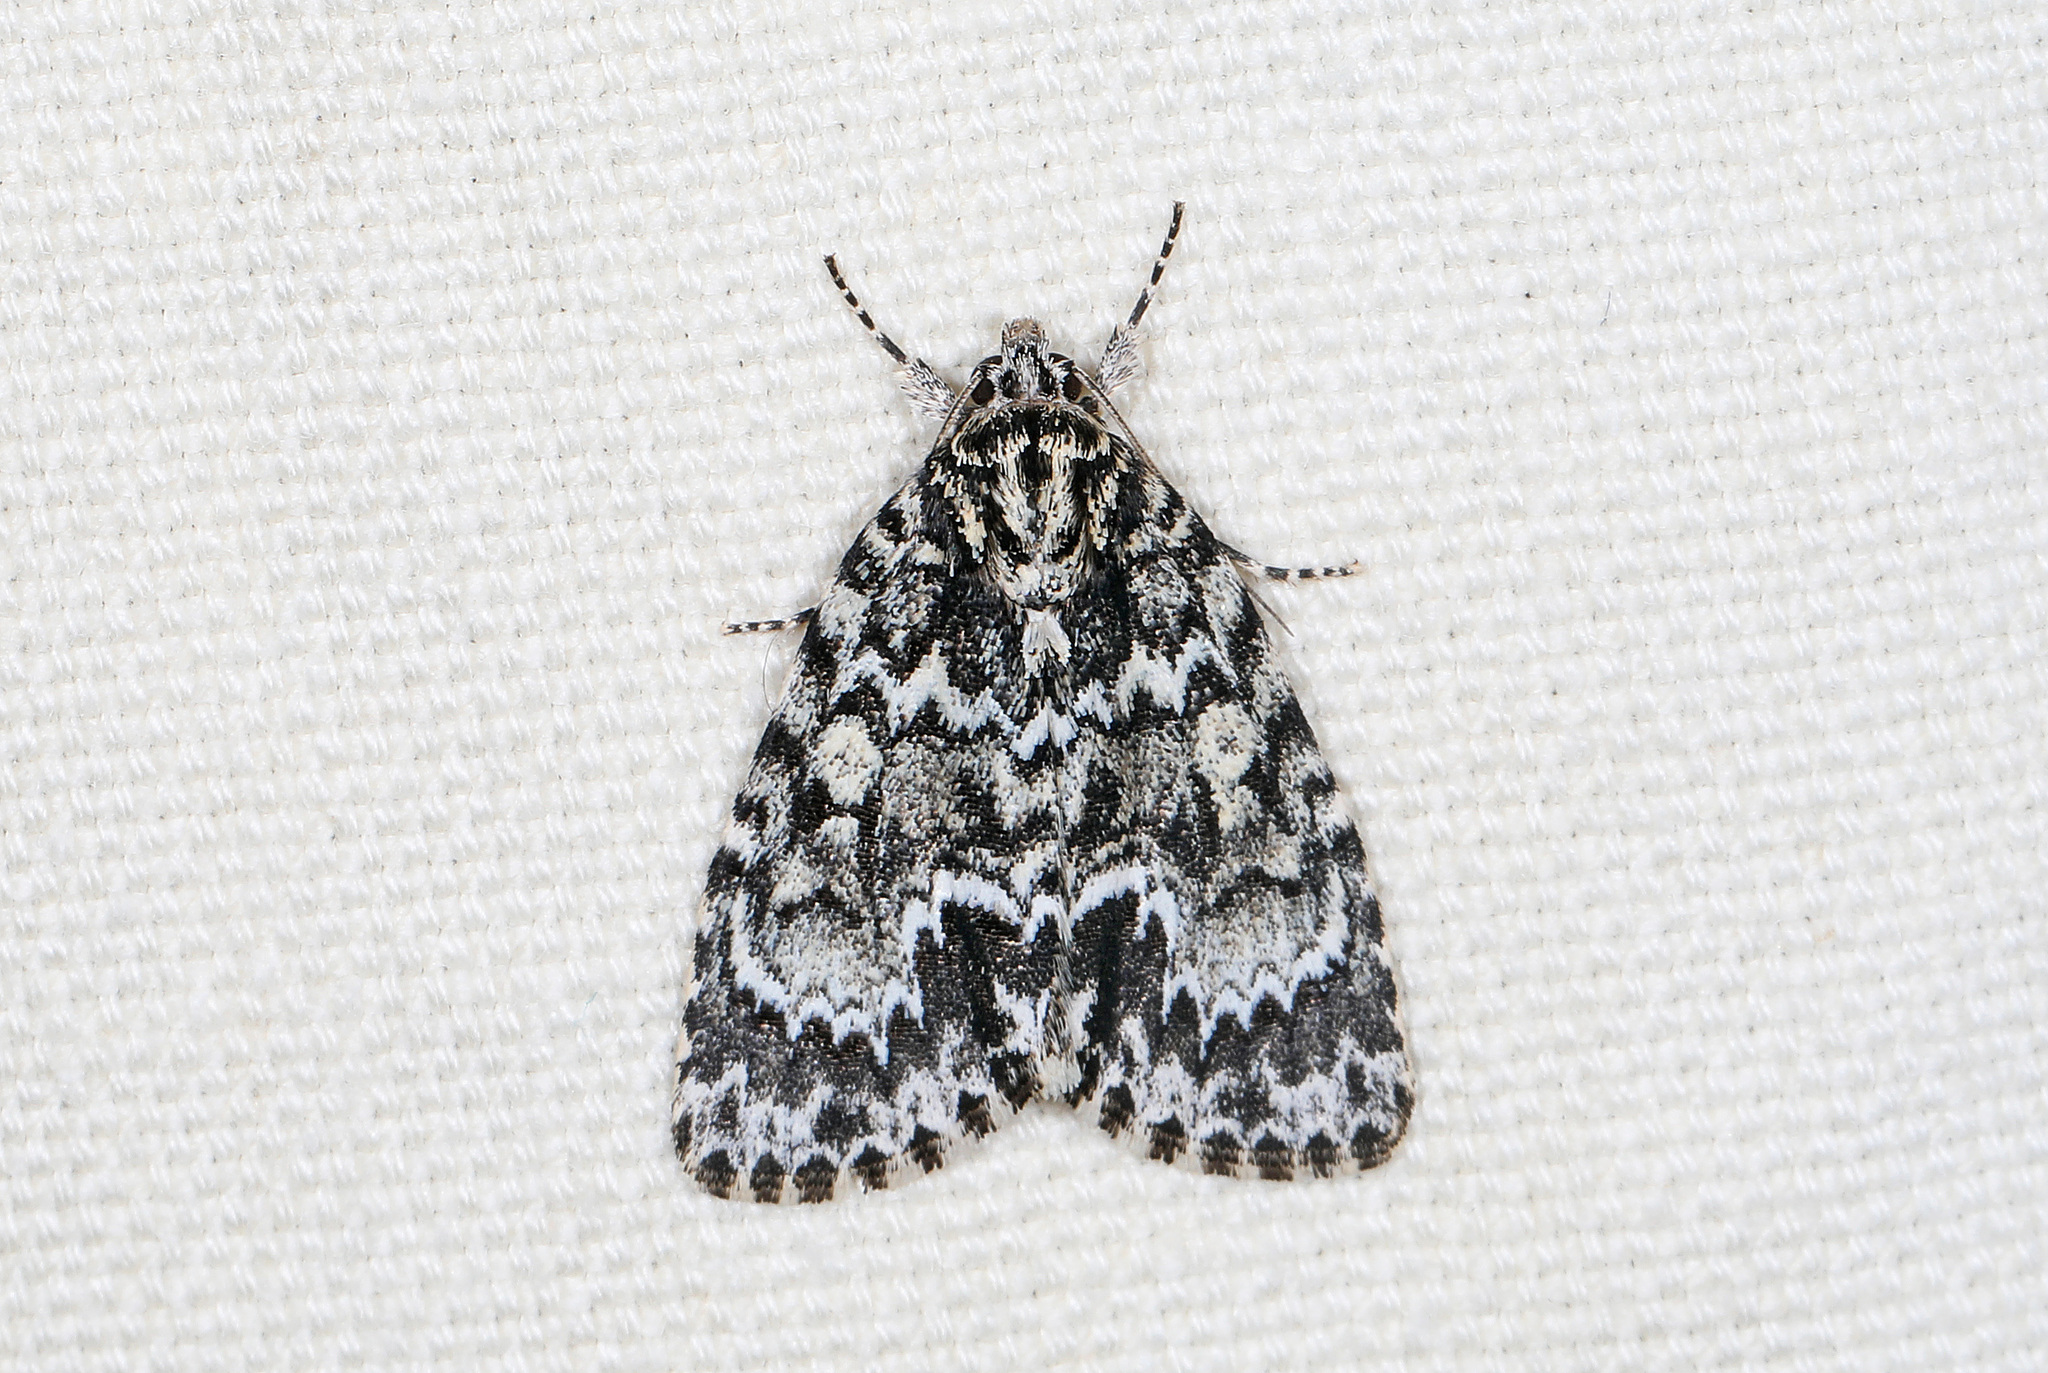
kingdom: Animalia
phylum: Arthropoda
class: Insecta
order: Lepidoptera
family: Noctuidae
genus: Acronicta
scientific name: Acronicta fragilis
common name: Fragile dagger
